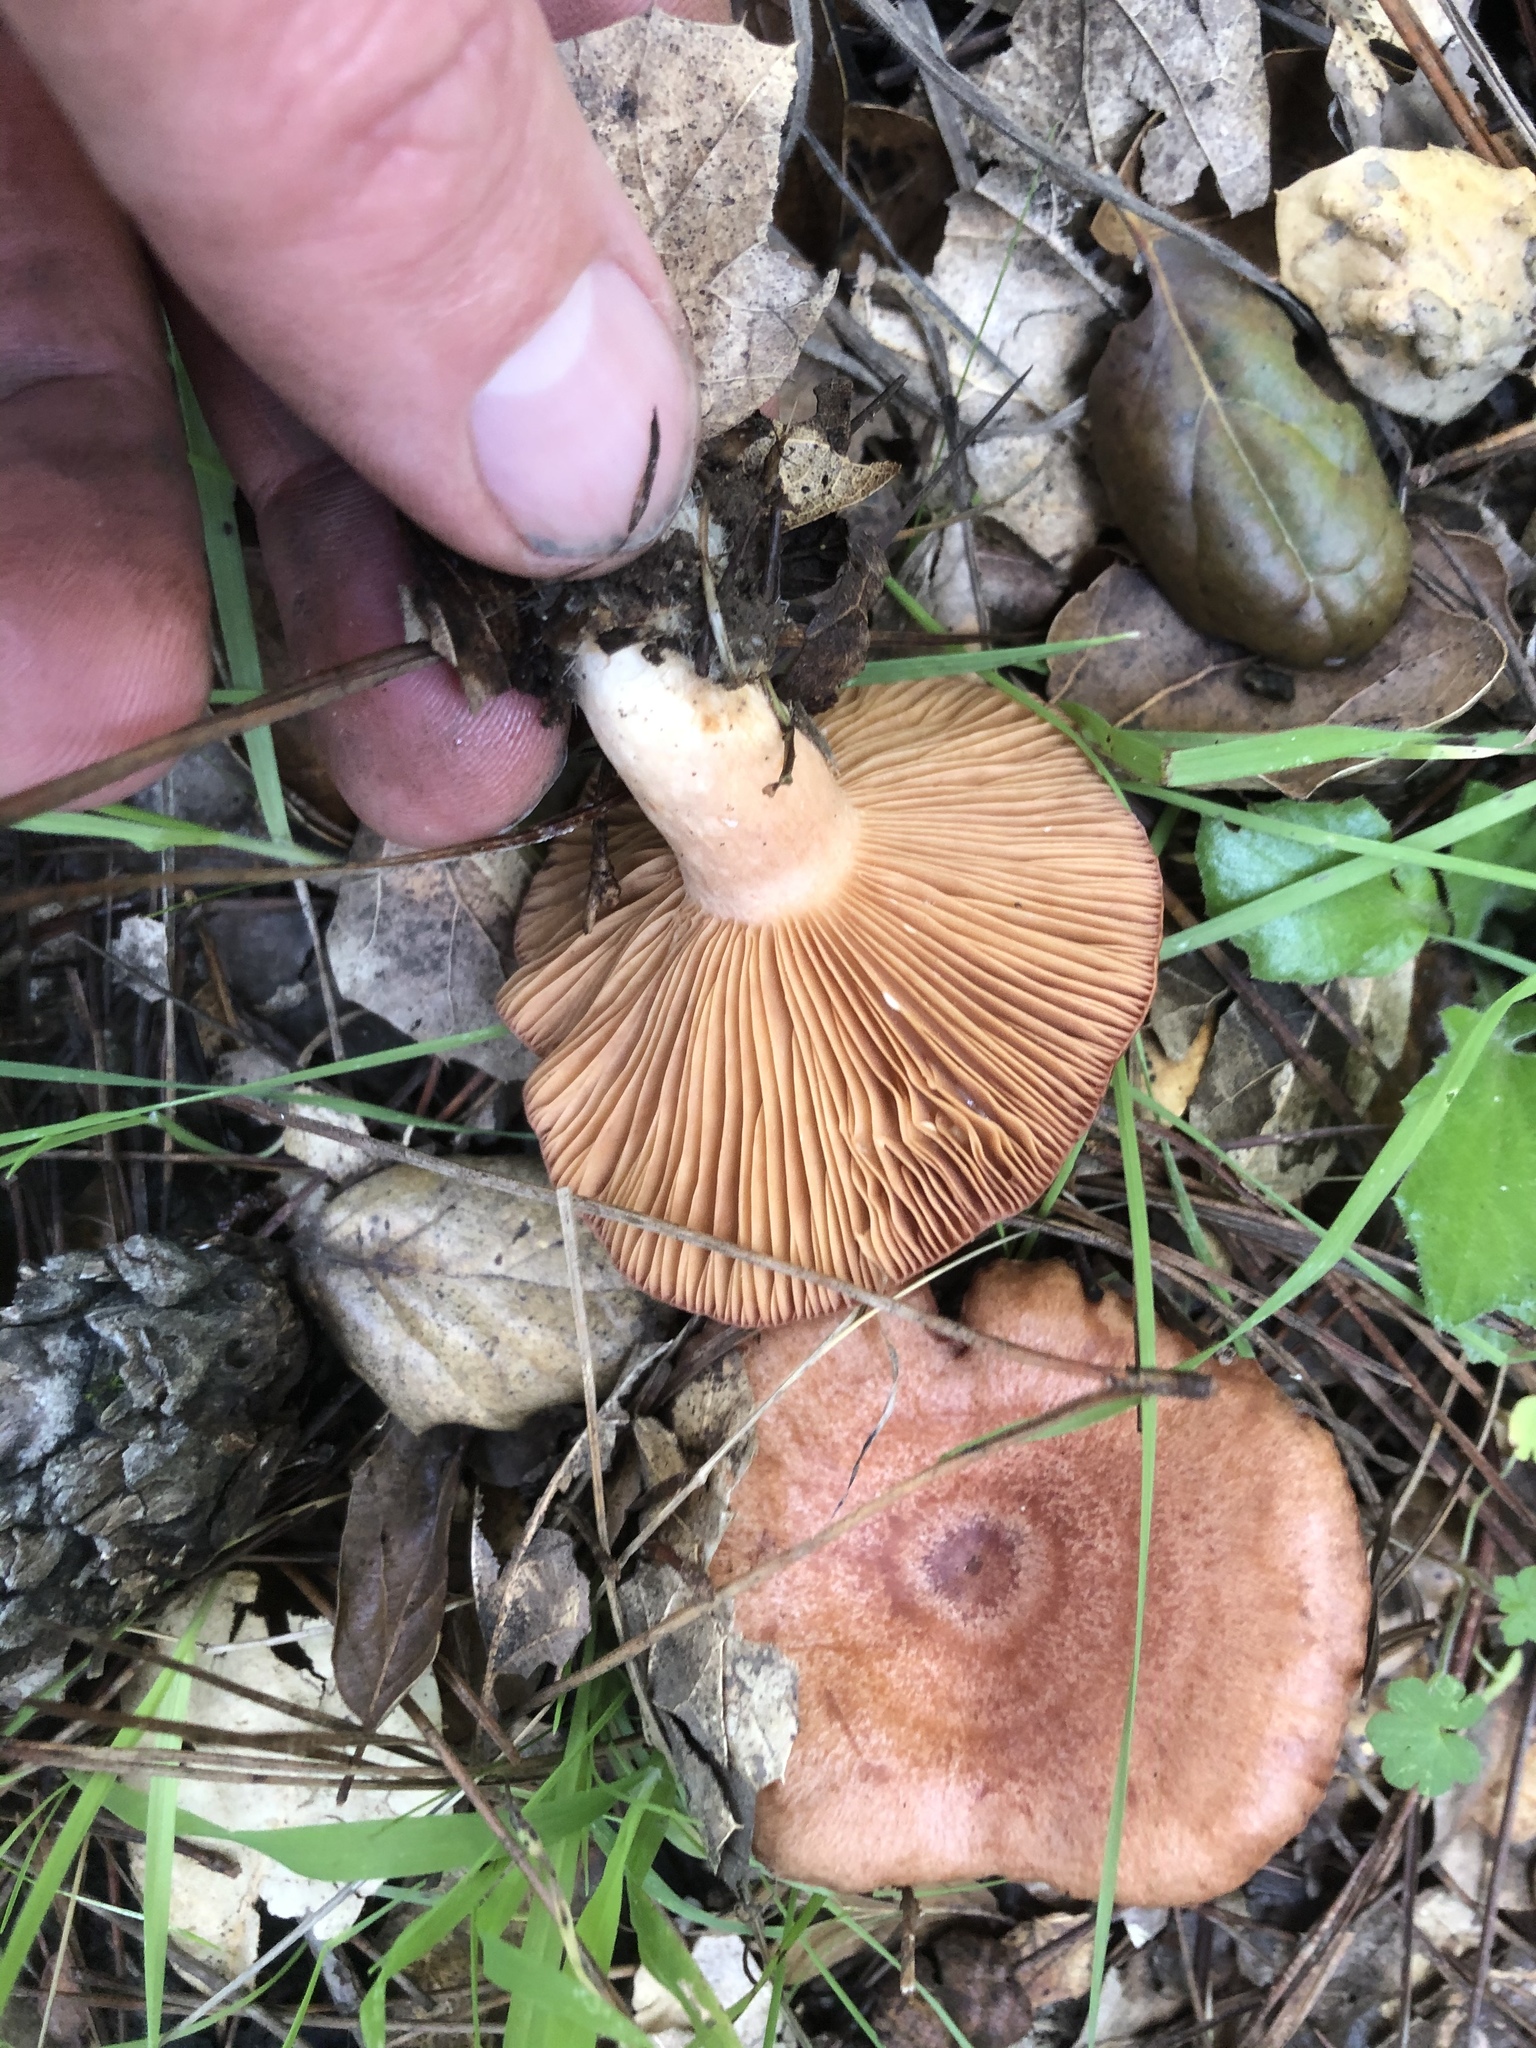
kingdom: Fungi
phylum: Basidiomycota
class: Agaricomycetes
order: Russulales
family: Russulaceae
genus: Lactarius
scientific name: Lactarius xanthogalactus
